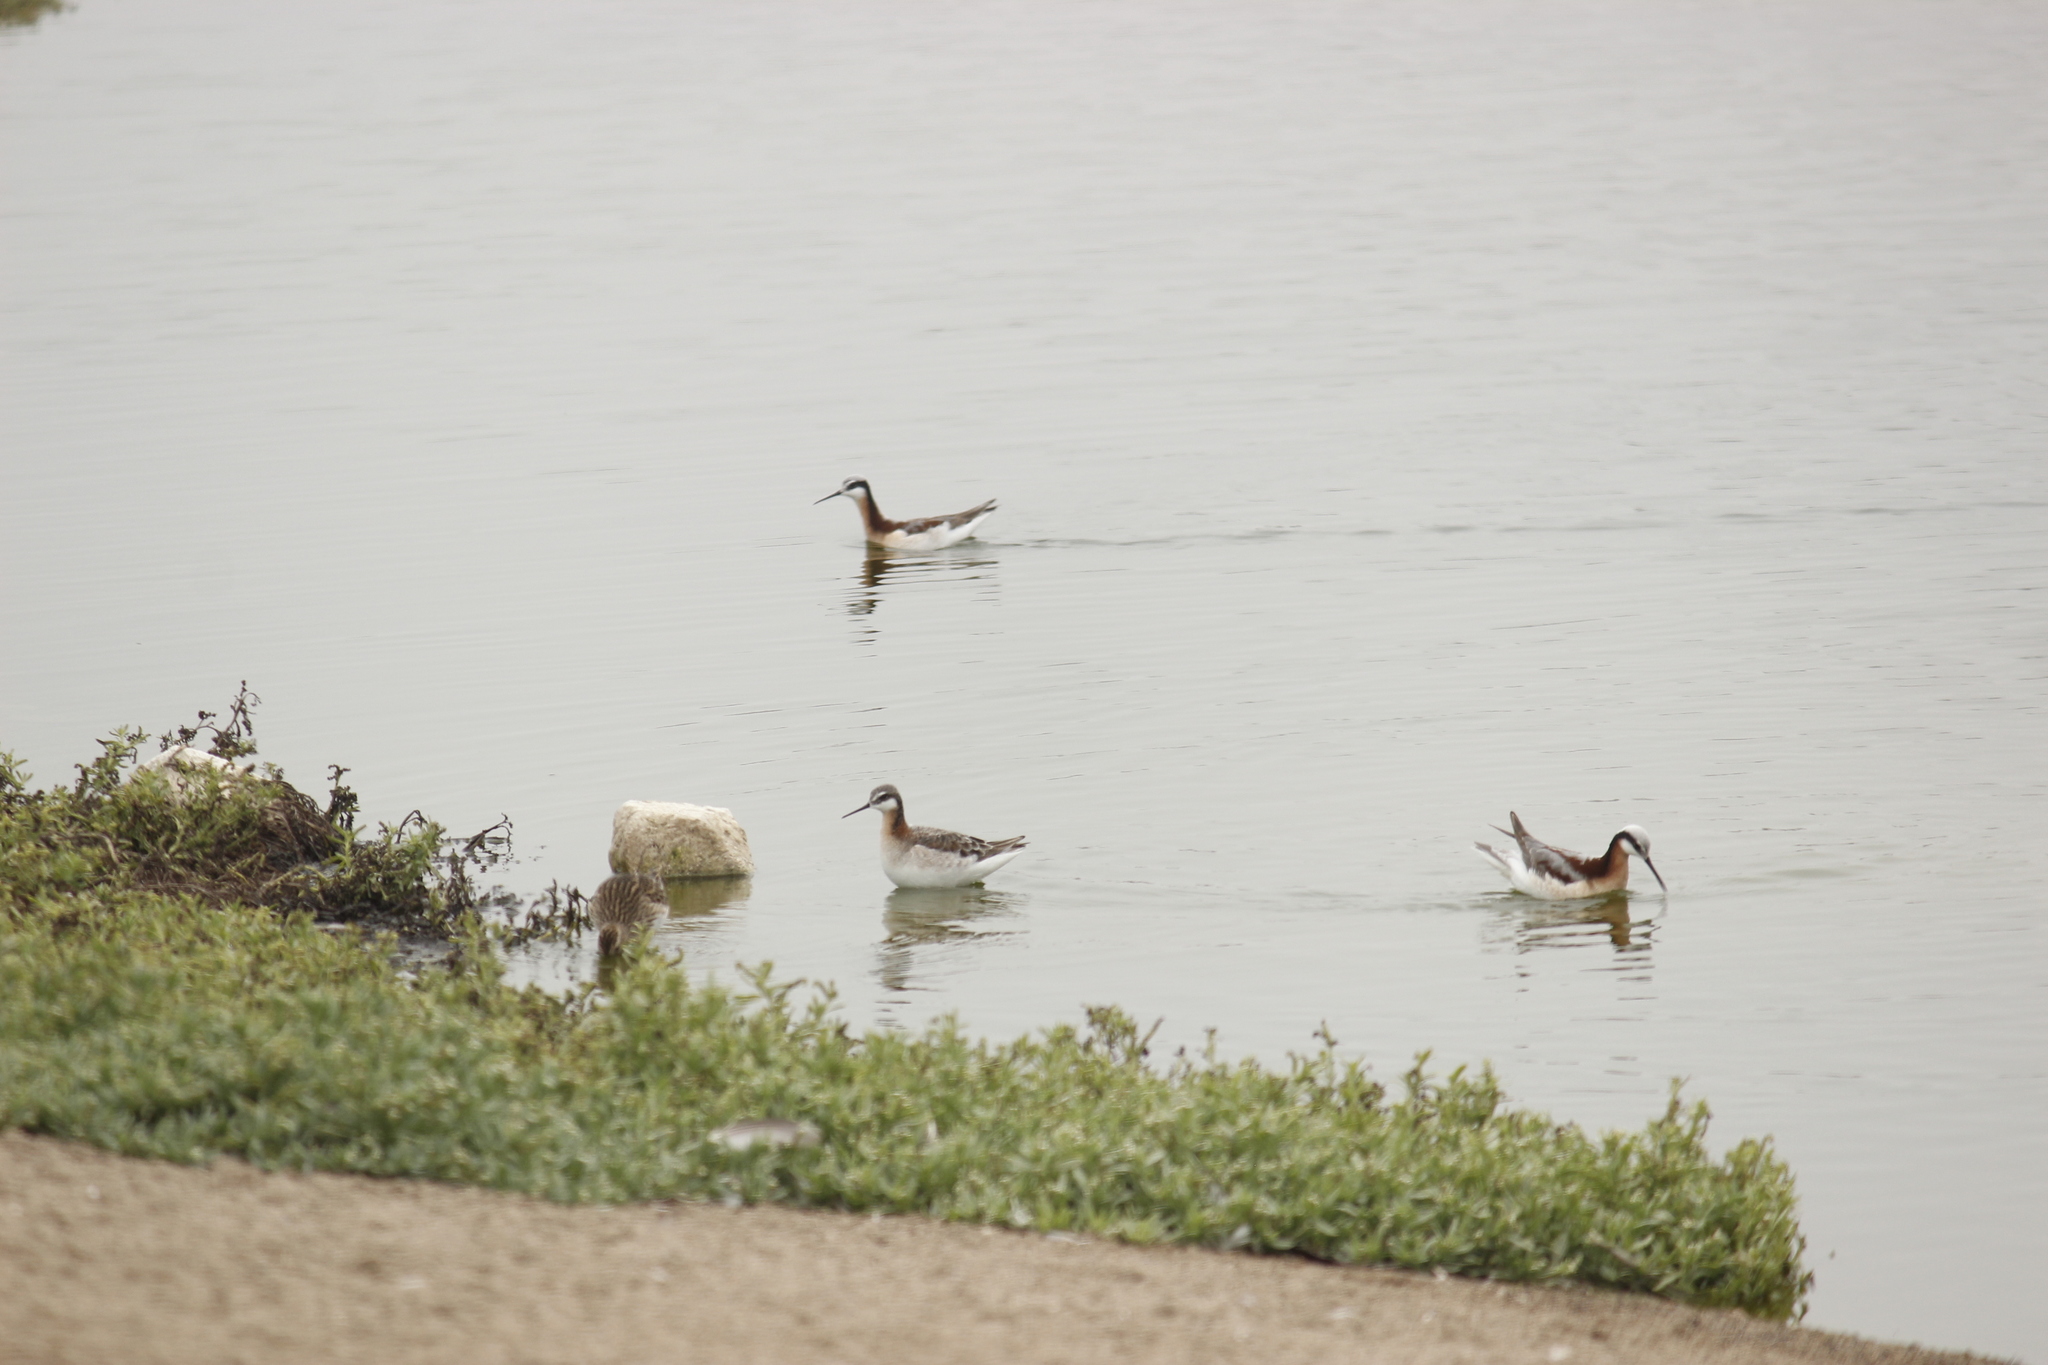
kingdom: Animalia
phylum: Chordata
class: Aves
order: Charadriiformes
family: Scolopacidae
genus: Phalaropus
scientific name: Phalaropus tricolor
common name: Wilson's phalarope
